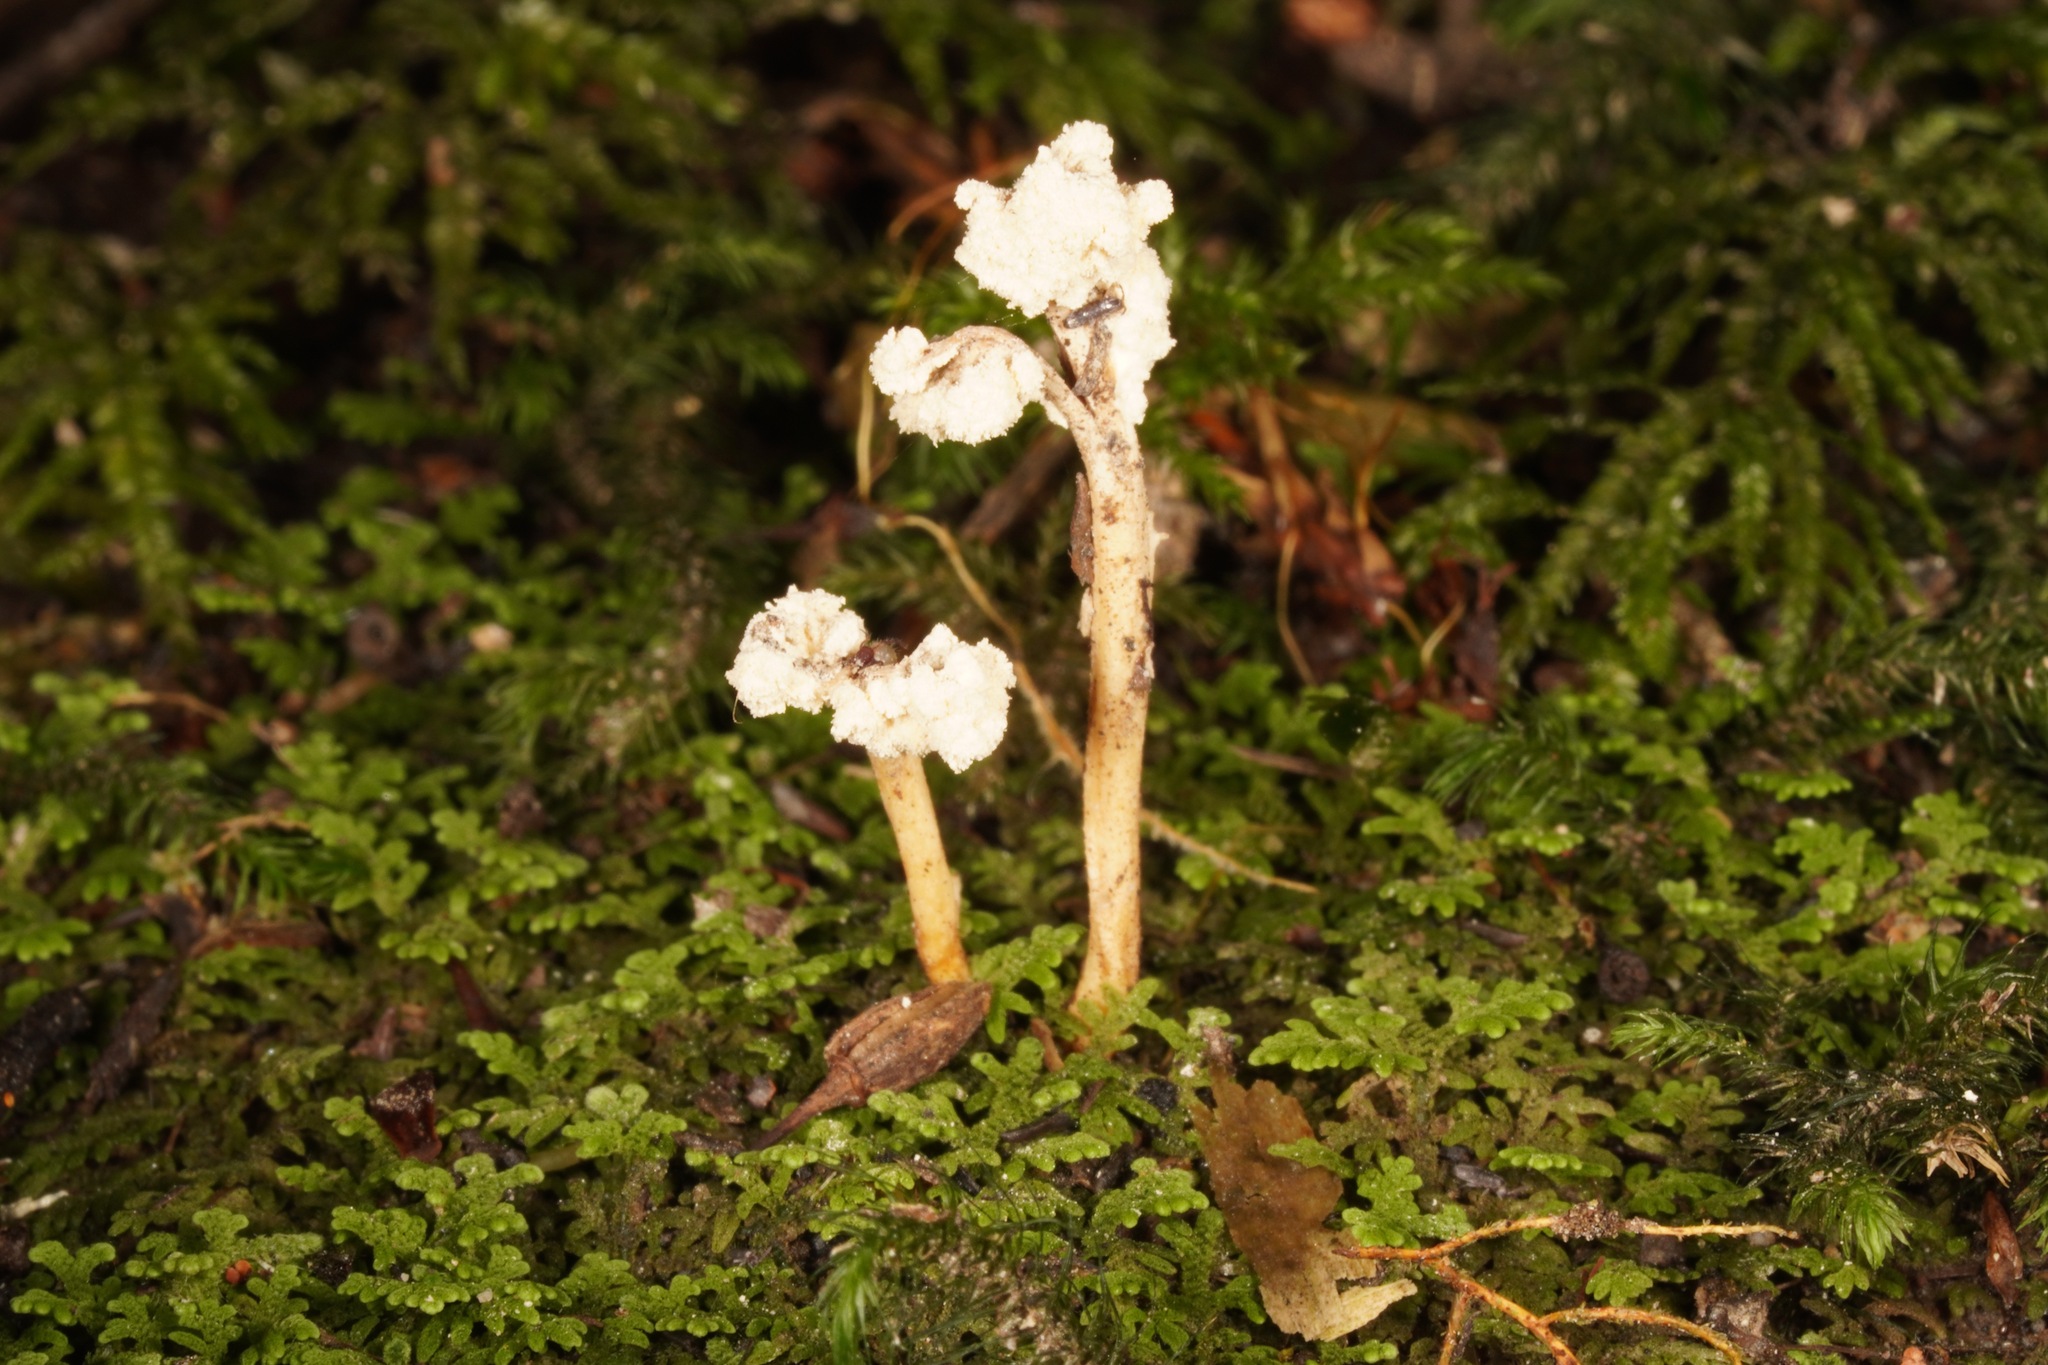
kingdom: Fungi
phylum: Ascomycota
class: Sordariomycetes
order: Hypocreales
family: Cordycipitaceae
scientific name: Cordycipitaceae
